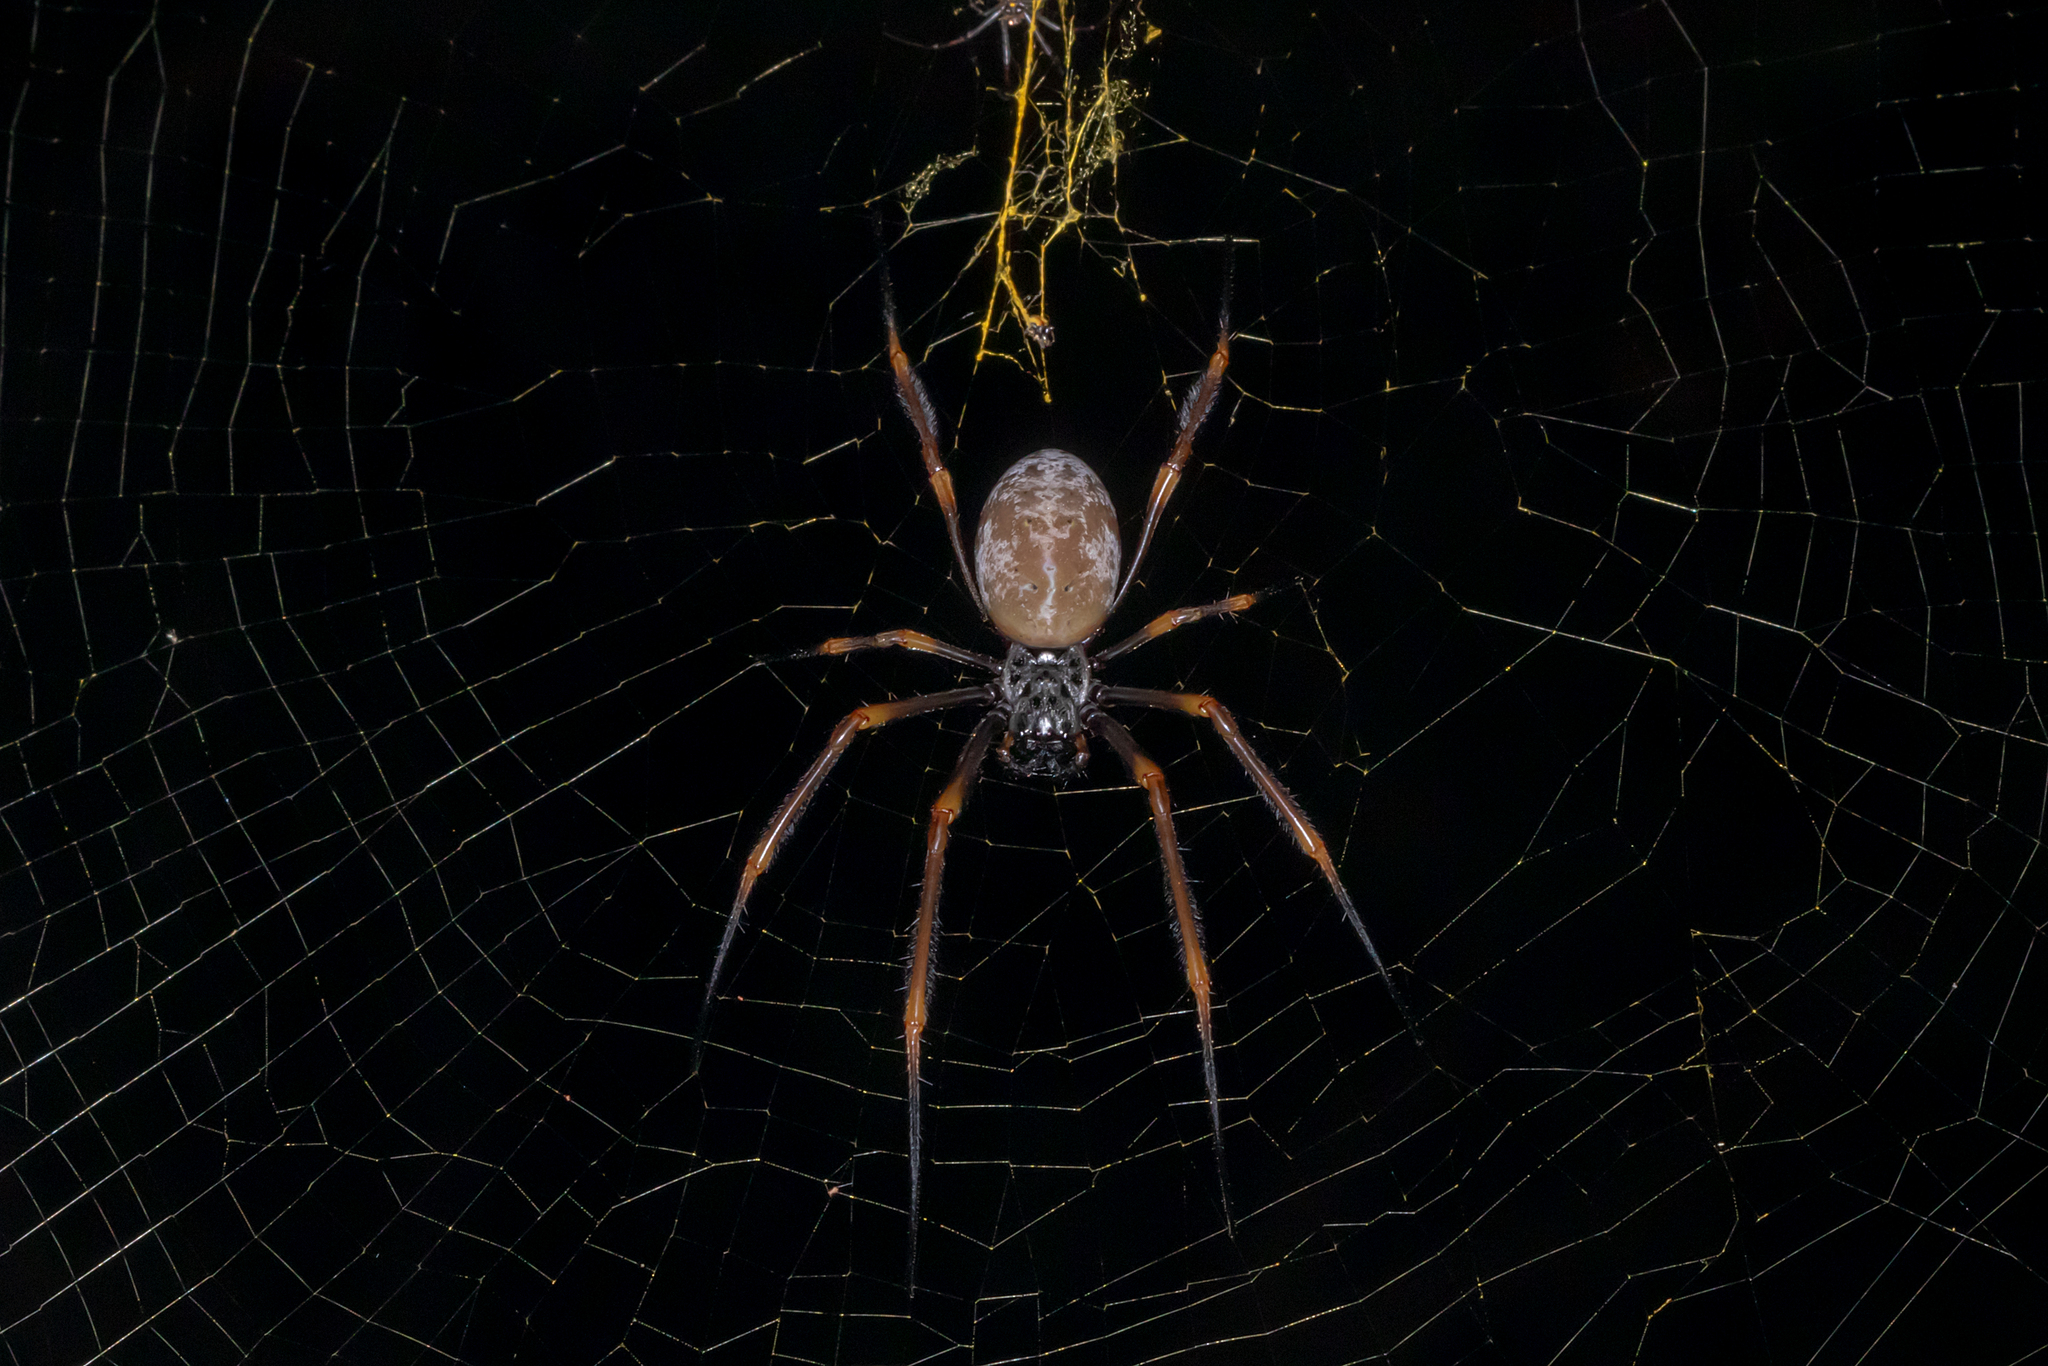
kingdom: Animalia
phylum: Arthropoda
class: Arachnida
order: Araneae
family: Araneidae
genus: Trichonephila
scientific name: Trichonephila plumipes
